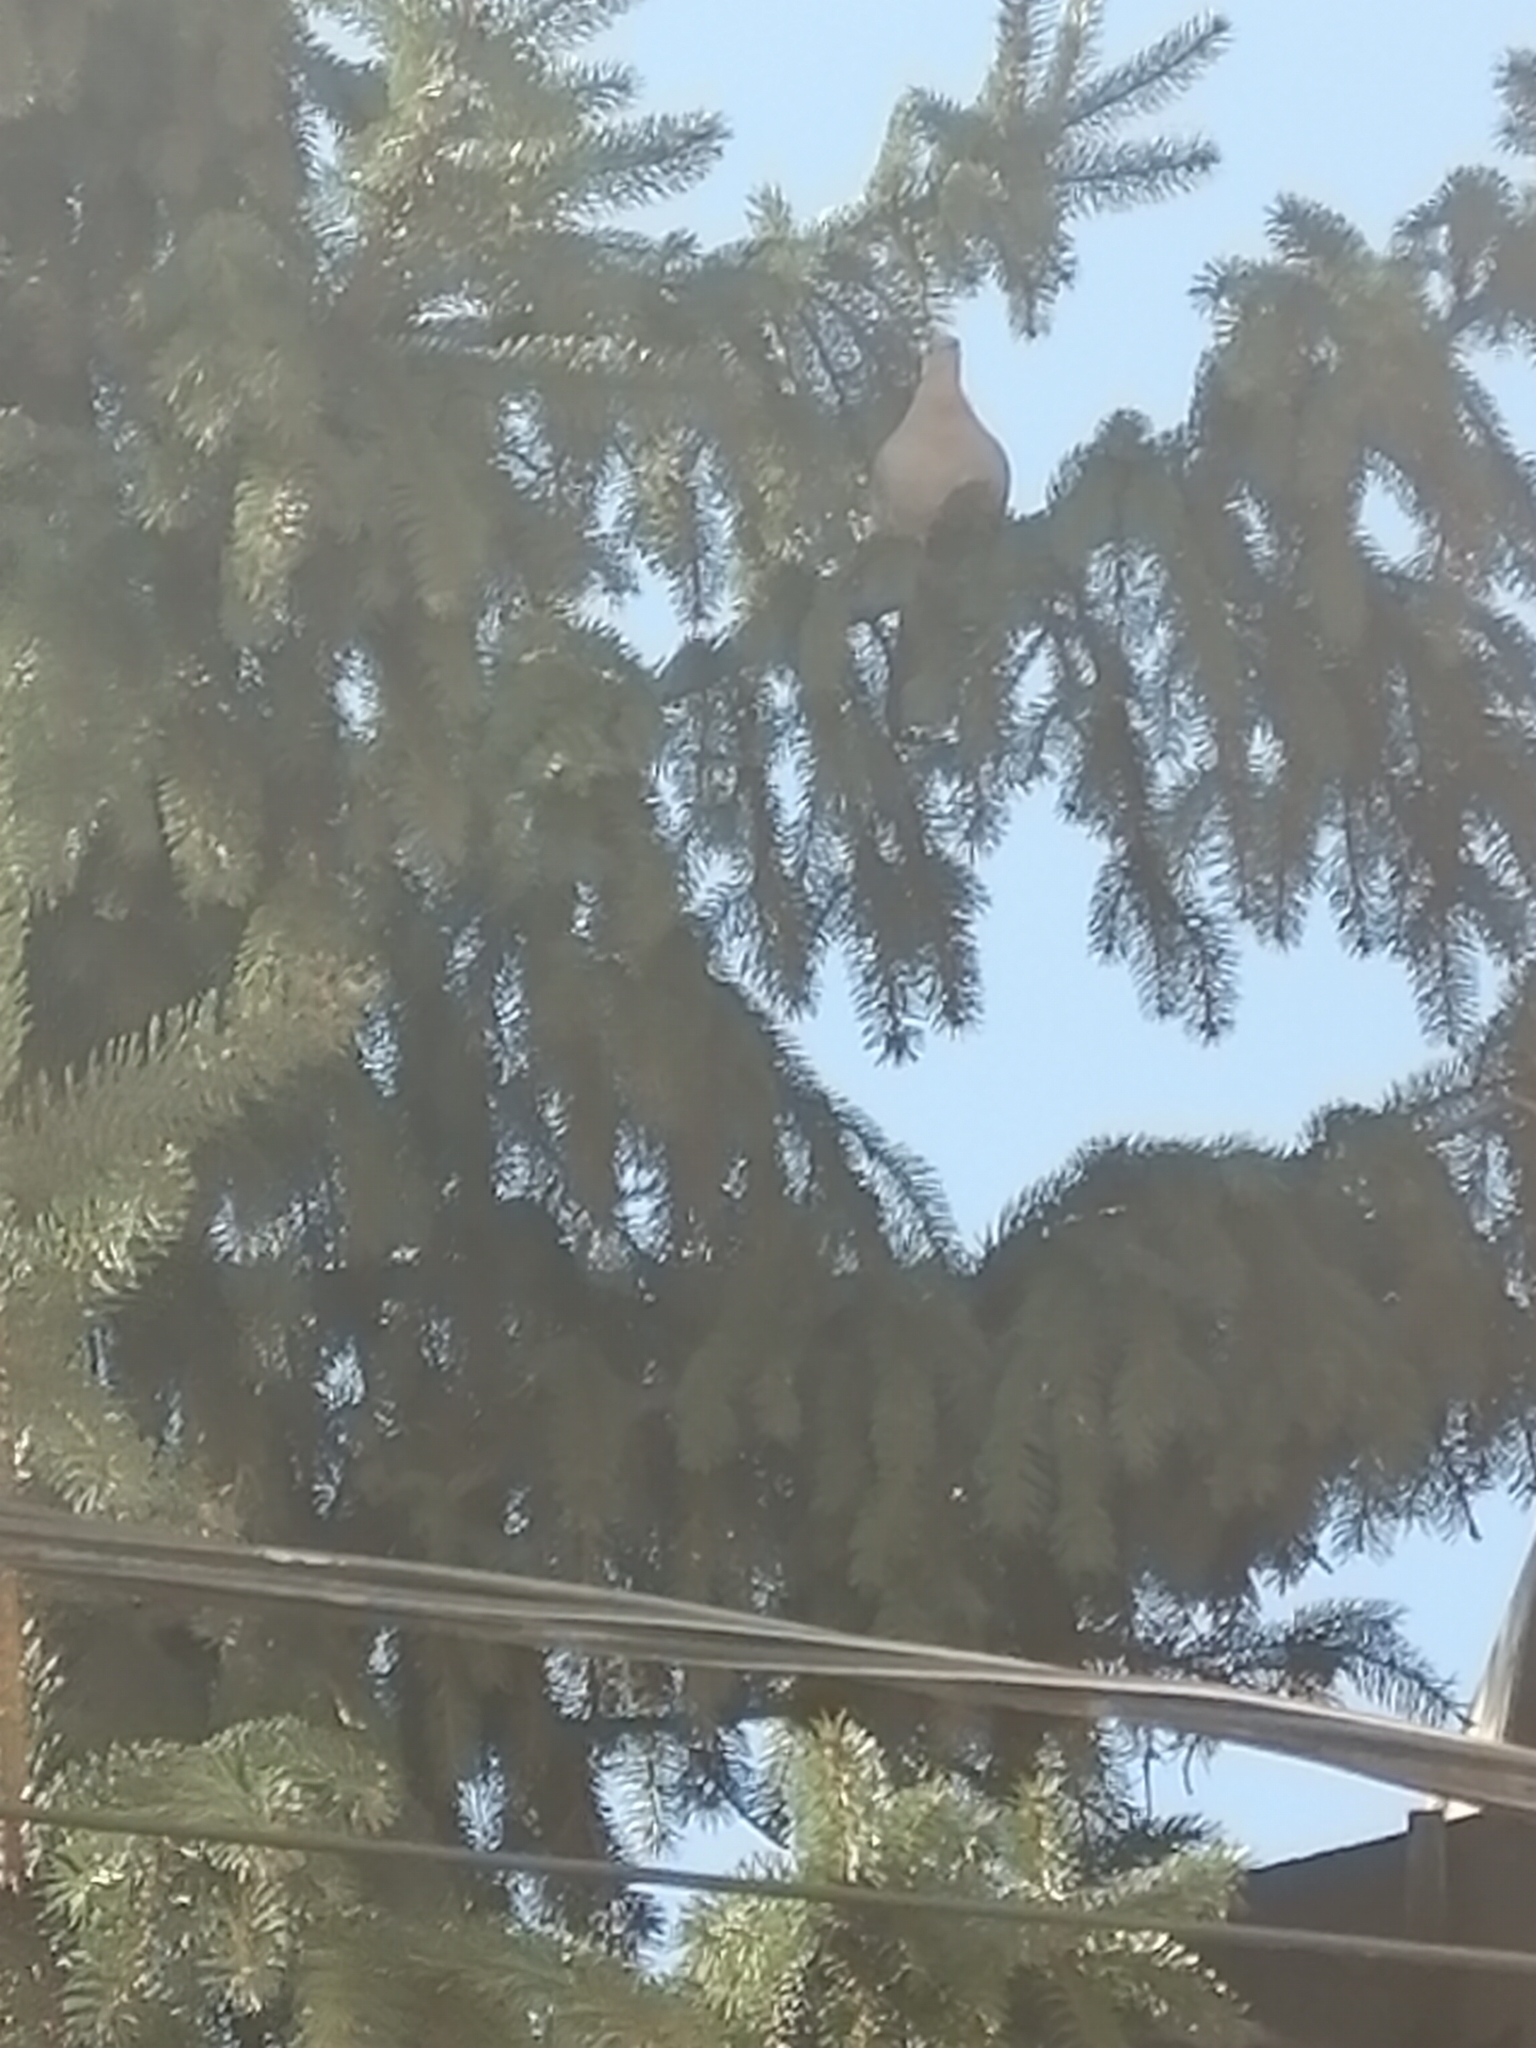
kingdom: Animalia
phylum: Chordata
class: Aves
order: Columbiformes
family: Columbidae
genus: Streptopelia
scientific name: Streptopelia decaocto
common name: Eurasian collared dove
